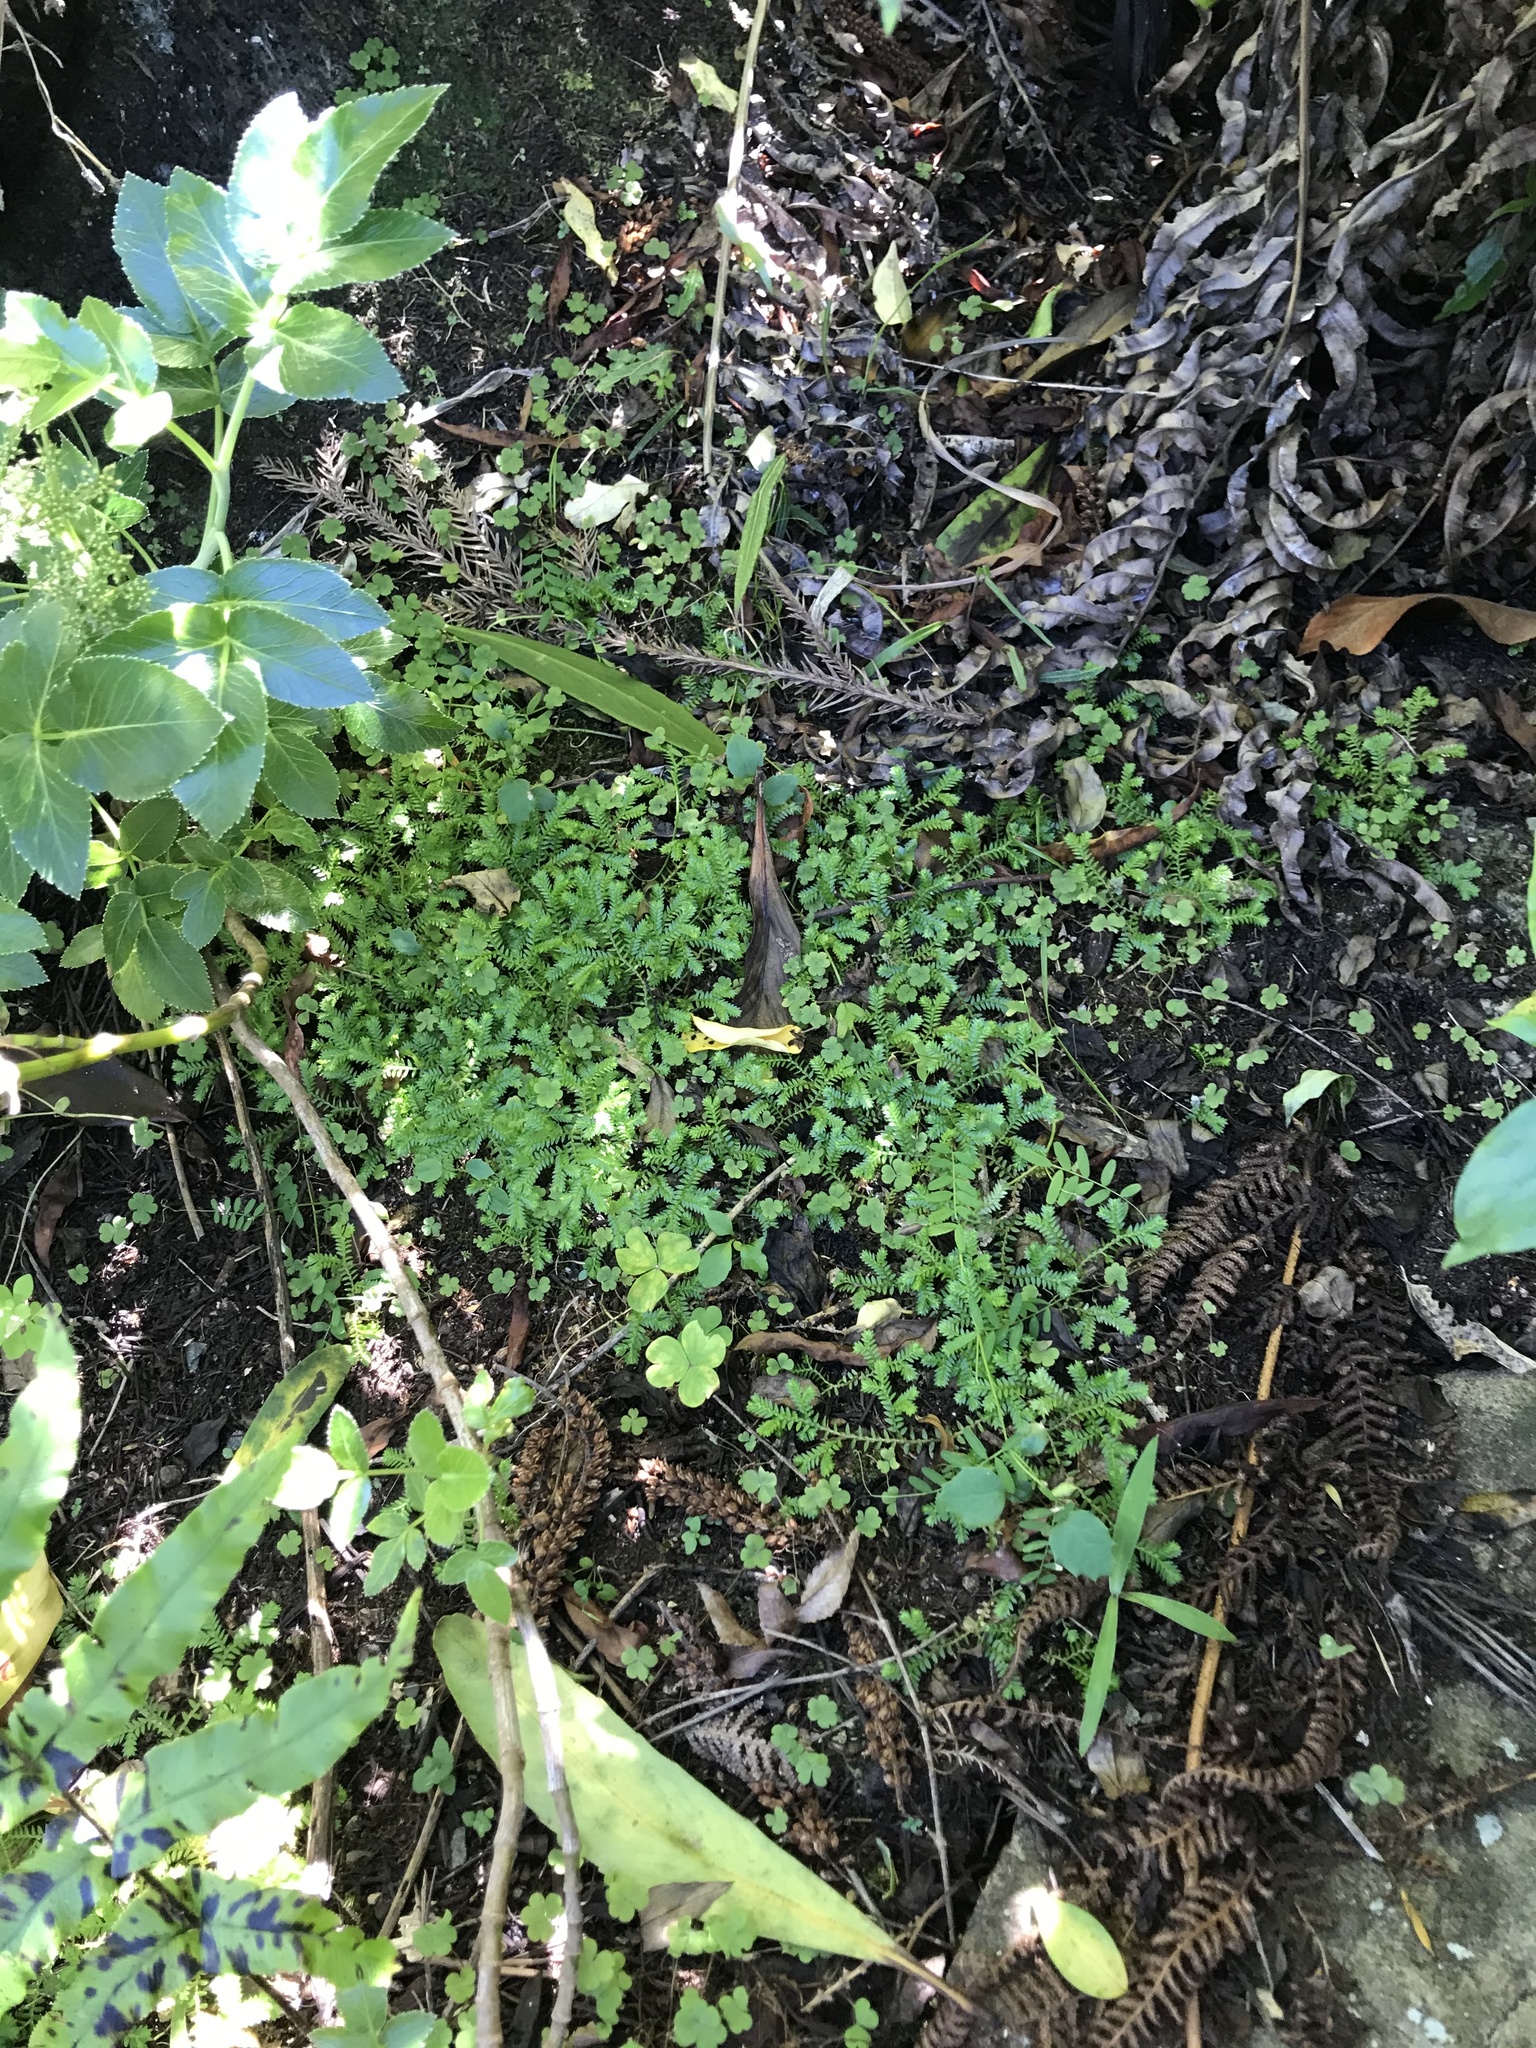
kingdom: Plantae
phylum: Tracheophyta
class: Lycopodiopsida
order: Selaginellales
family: Selaginellaceae
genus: Selaginella
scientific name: Selaginella kraussiana
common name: Krauss' spikemoss
